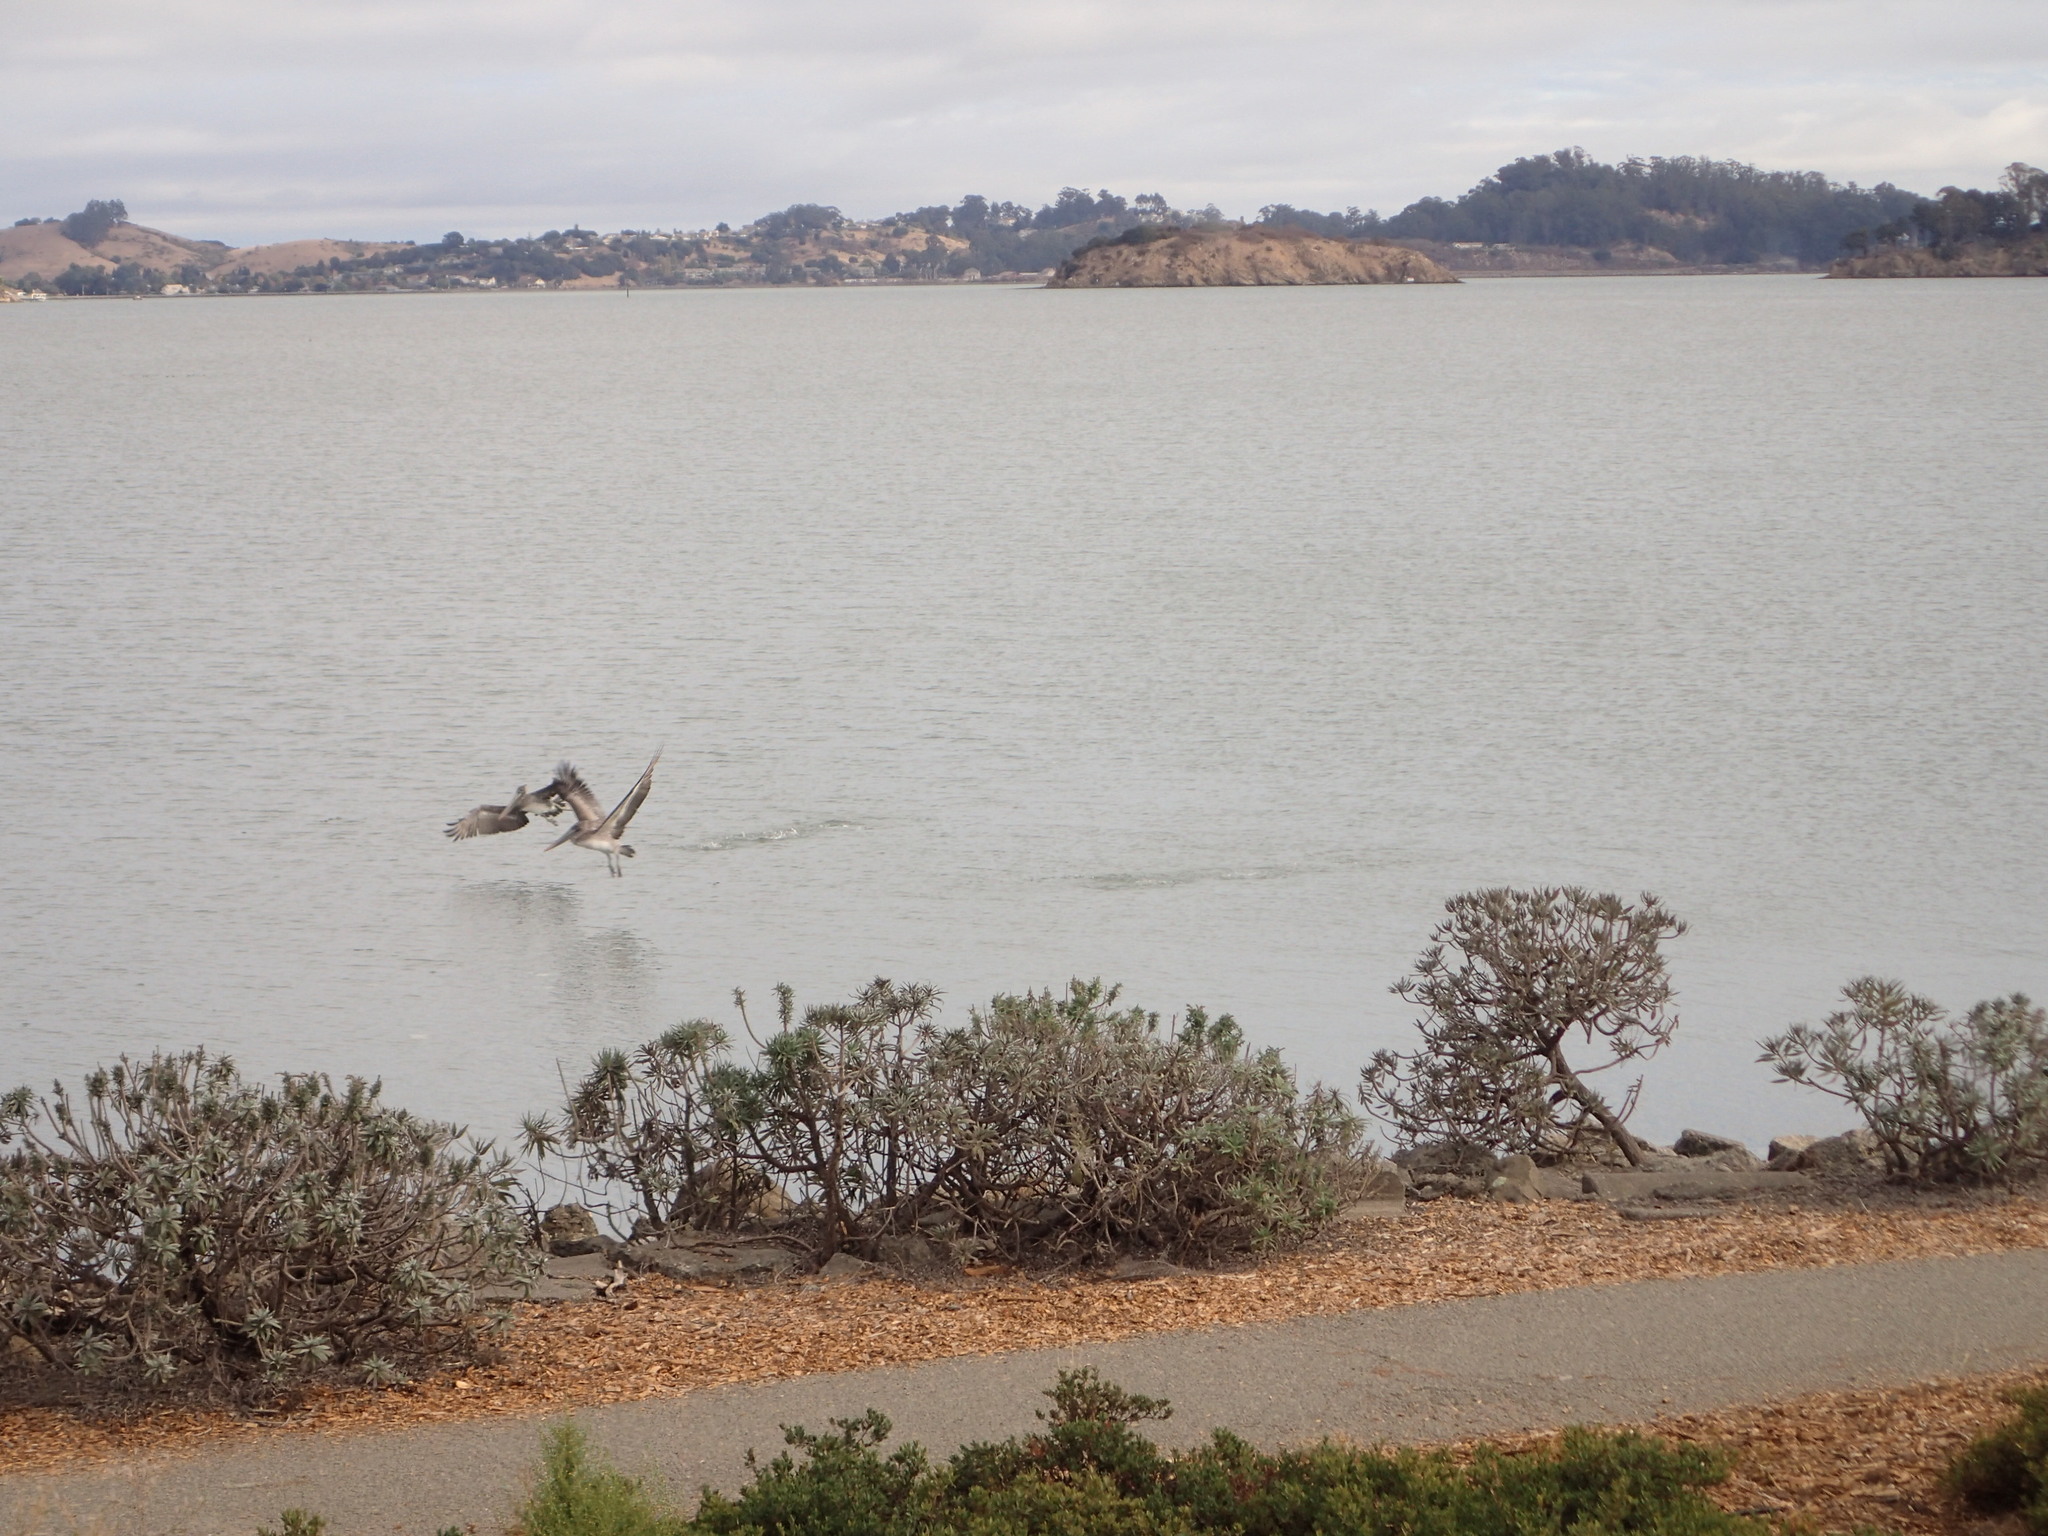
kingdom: Animalia
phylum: Chordata
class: Aves
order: Pelecaniformes
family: Pelecanidae
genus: Pelecanus
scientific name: Pelecanus occidentalis
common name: Brown pelican
